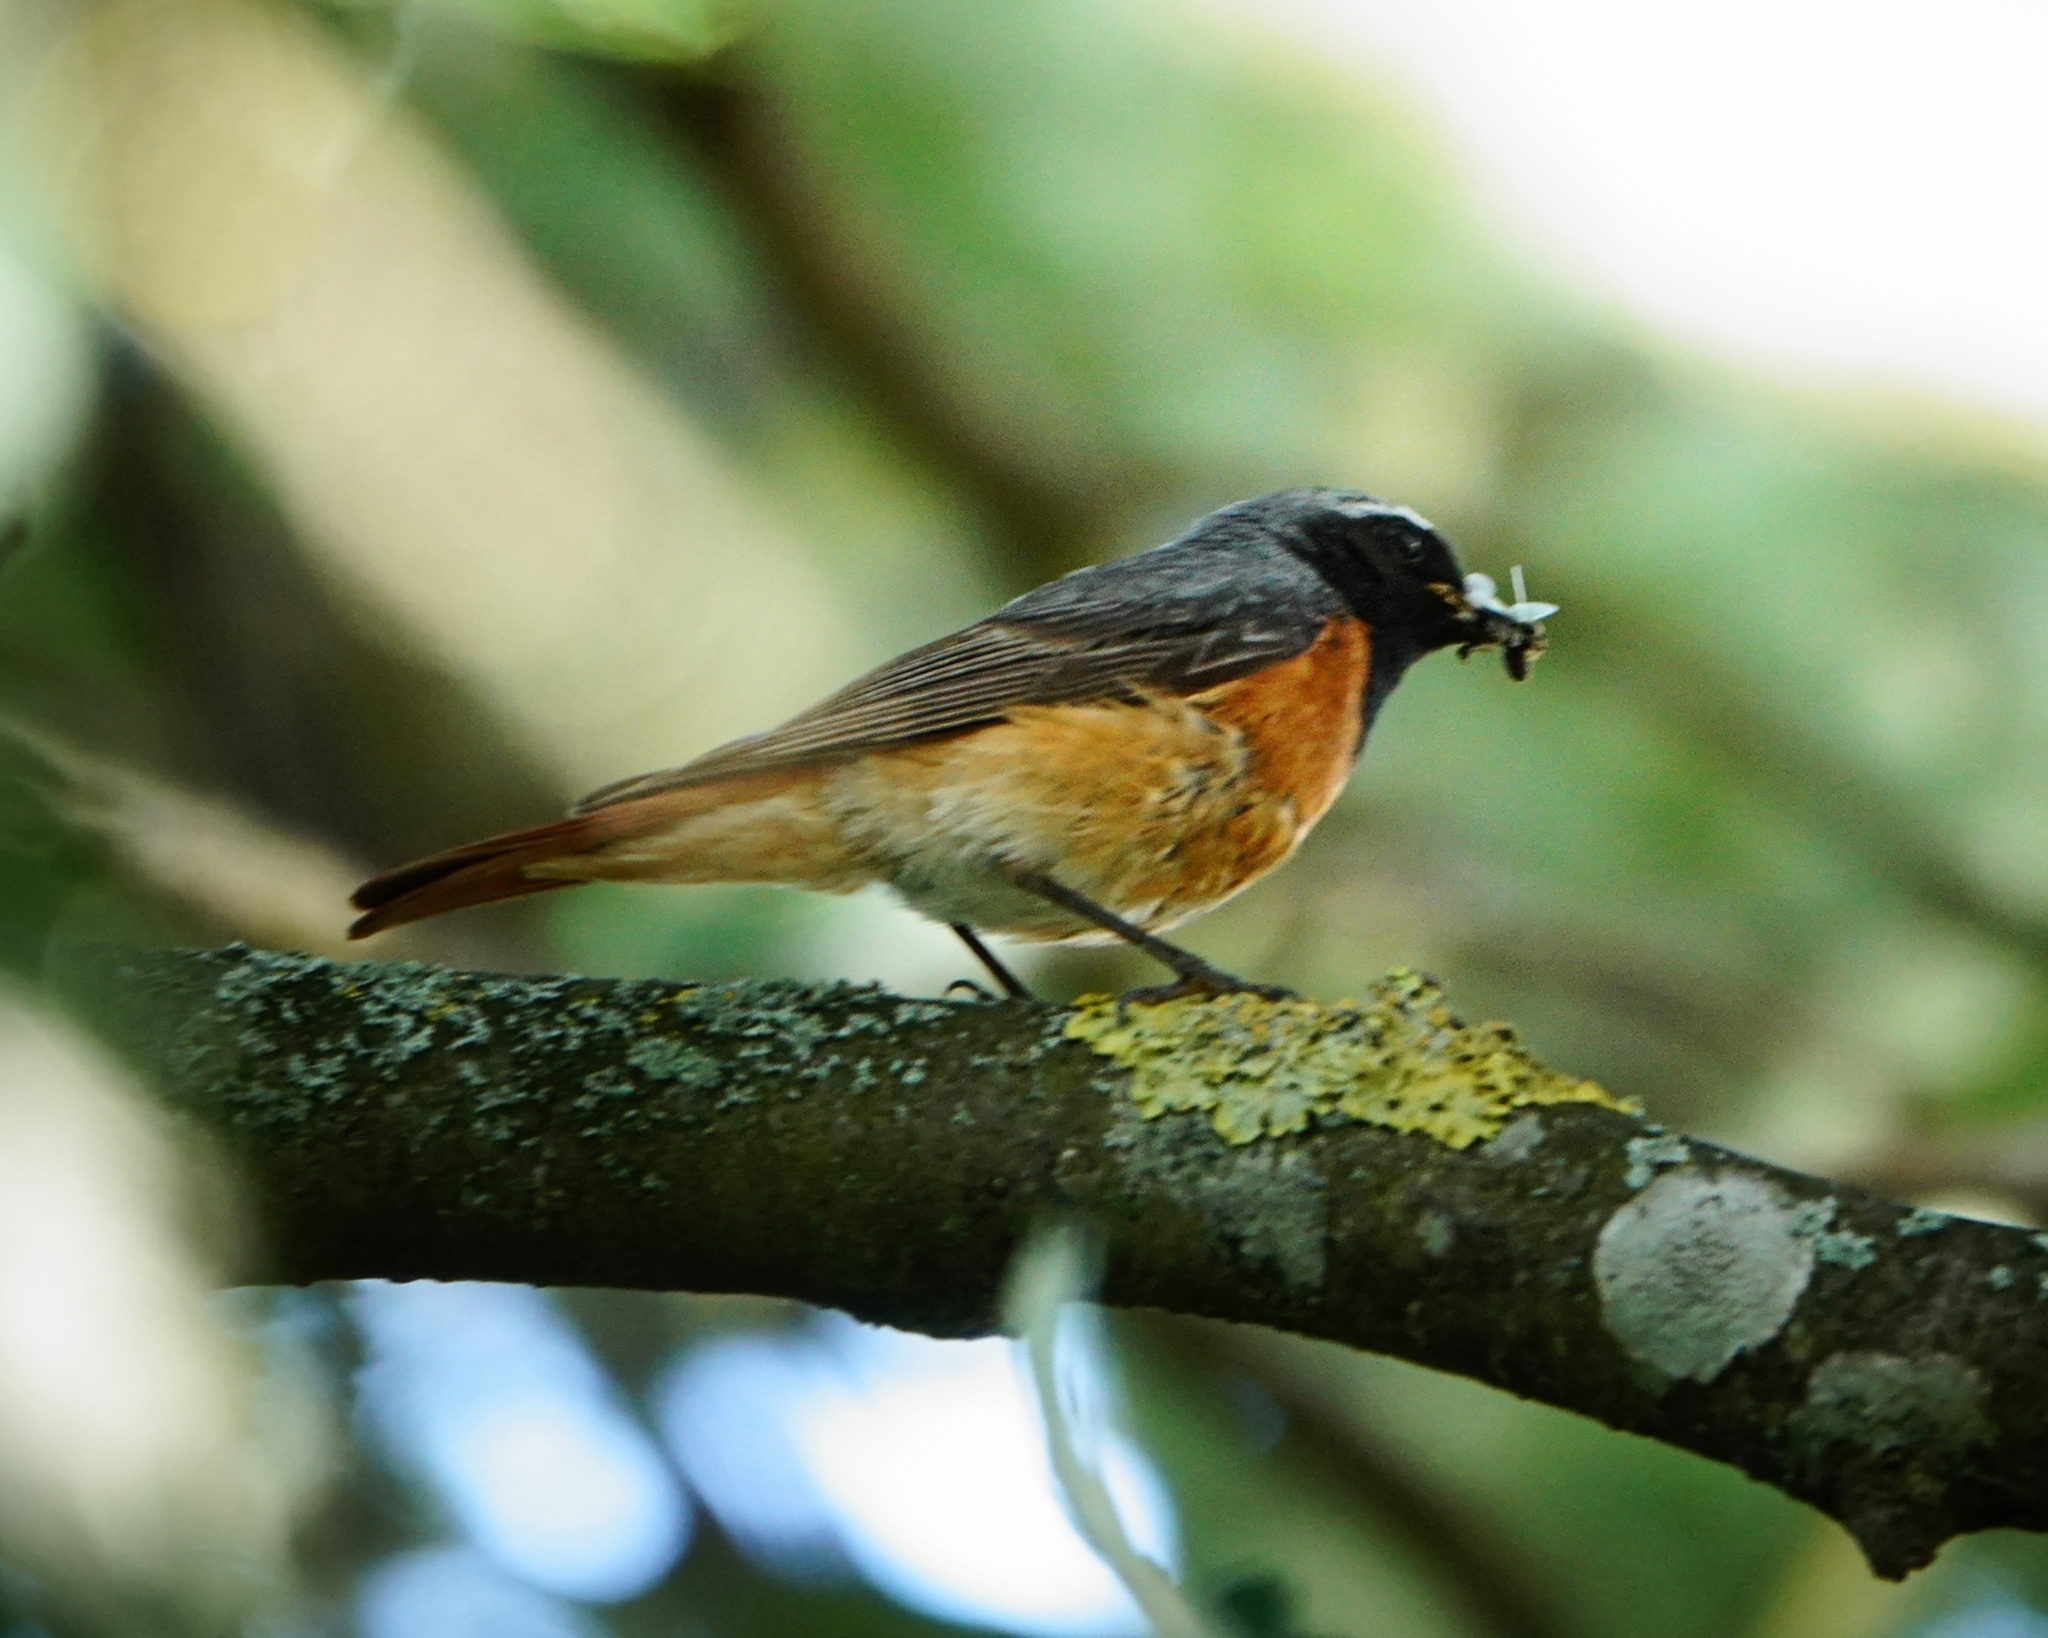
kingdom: Animalia
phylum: Chordata
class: Aves
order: Passeriformes
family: Muscicapidae
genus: Phoenicurus
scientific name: Phoenicurus phoenicurus
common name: Common redstart
